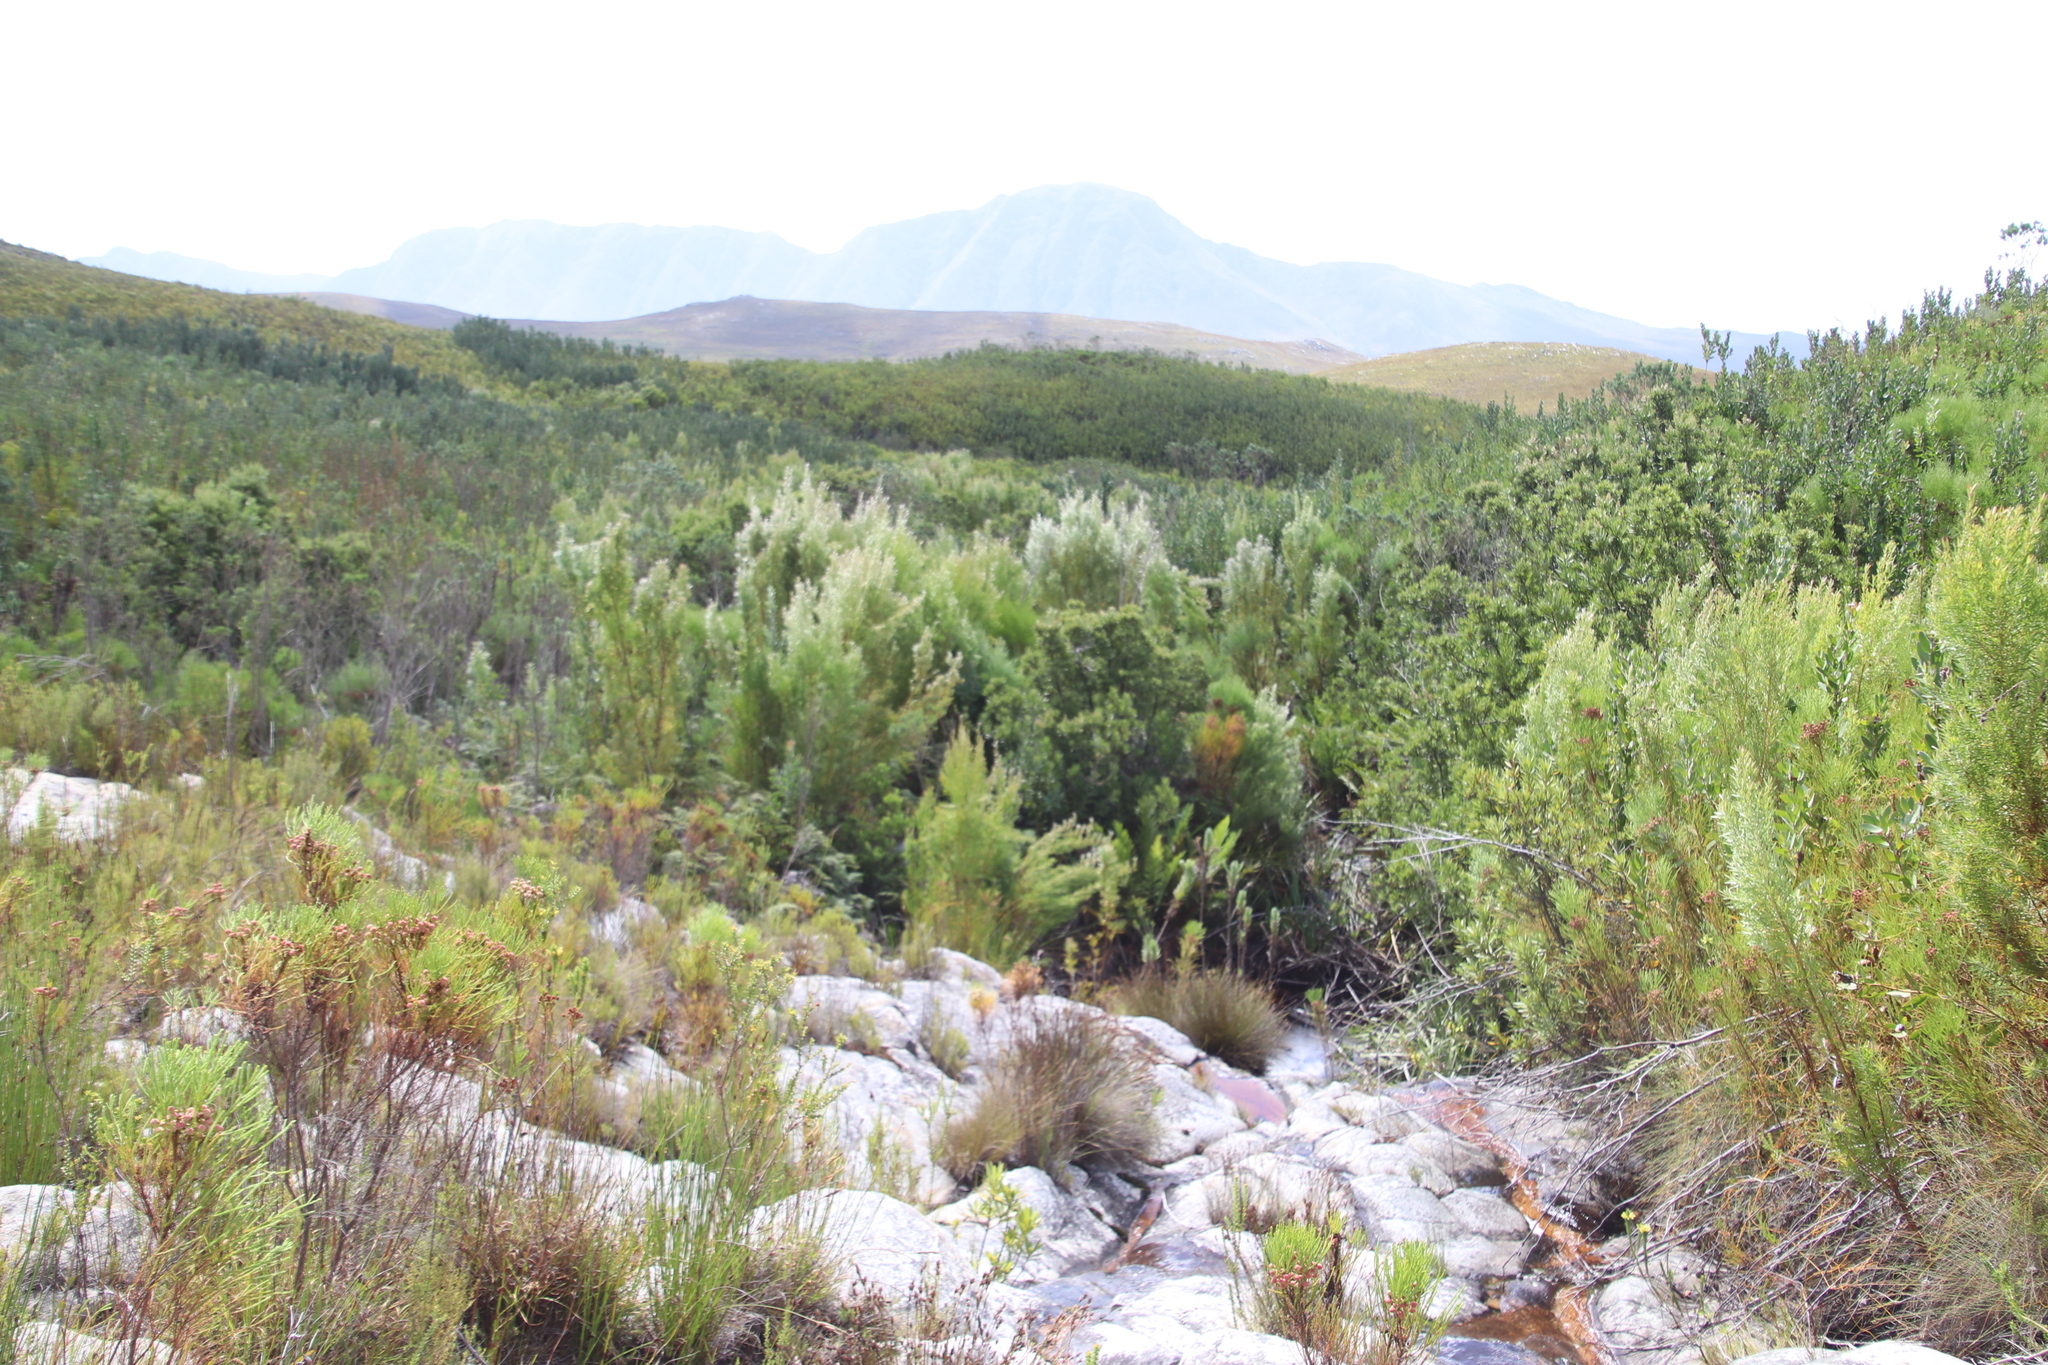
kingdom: Plantae
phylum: Tracheophyta
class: Magnoliopsida
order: Proteales
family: Proteaceae
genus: Leucadendron
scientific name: Leucadendron salicifolium
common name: Common stream conebush
